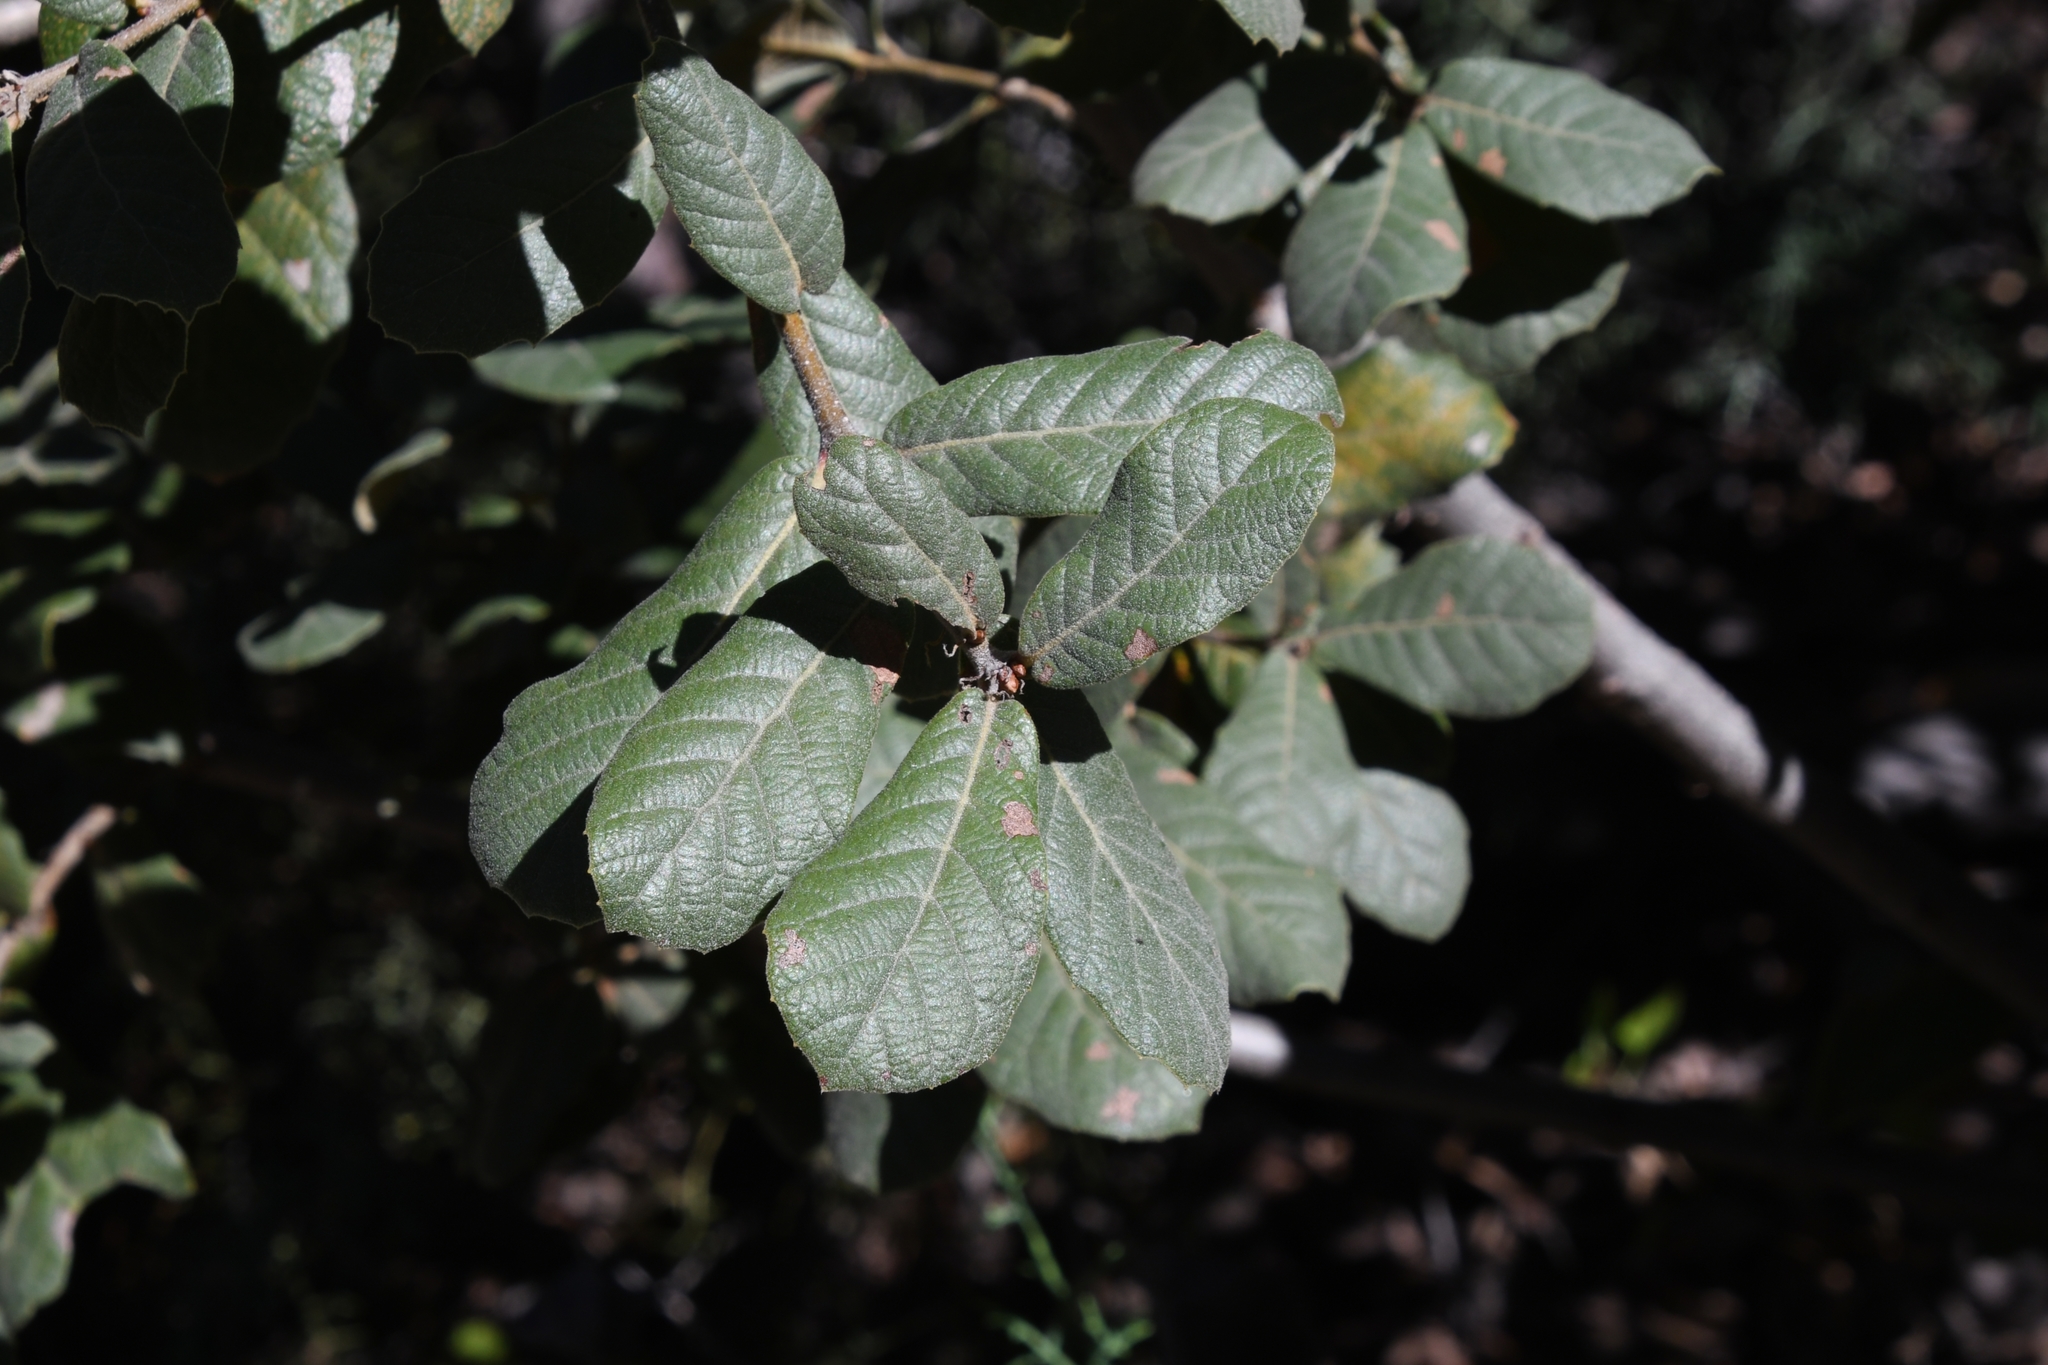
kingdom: Plantae
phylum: Tracheophyta
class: Magnoliopsida
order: Fagales
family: Fagaceae
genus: Quercus
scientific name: Quercus rugosa
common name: Netleaf oak
